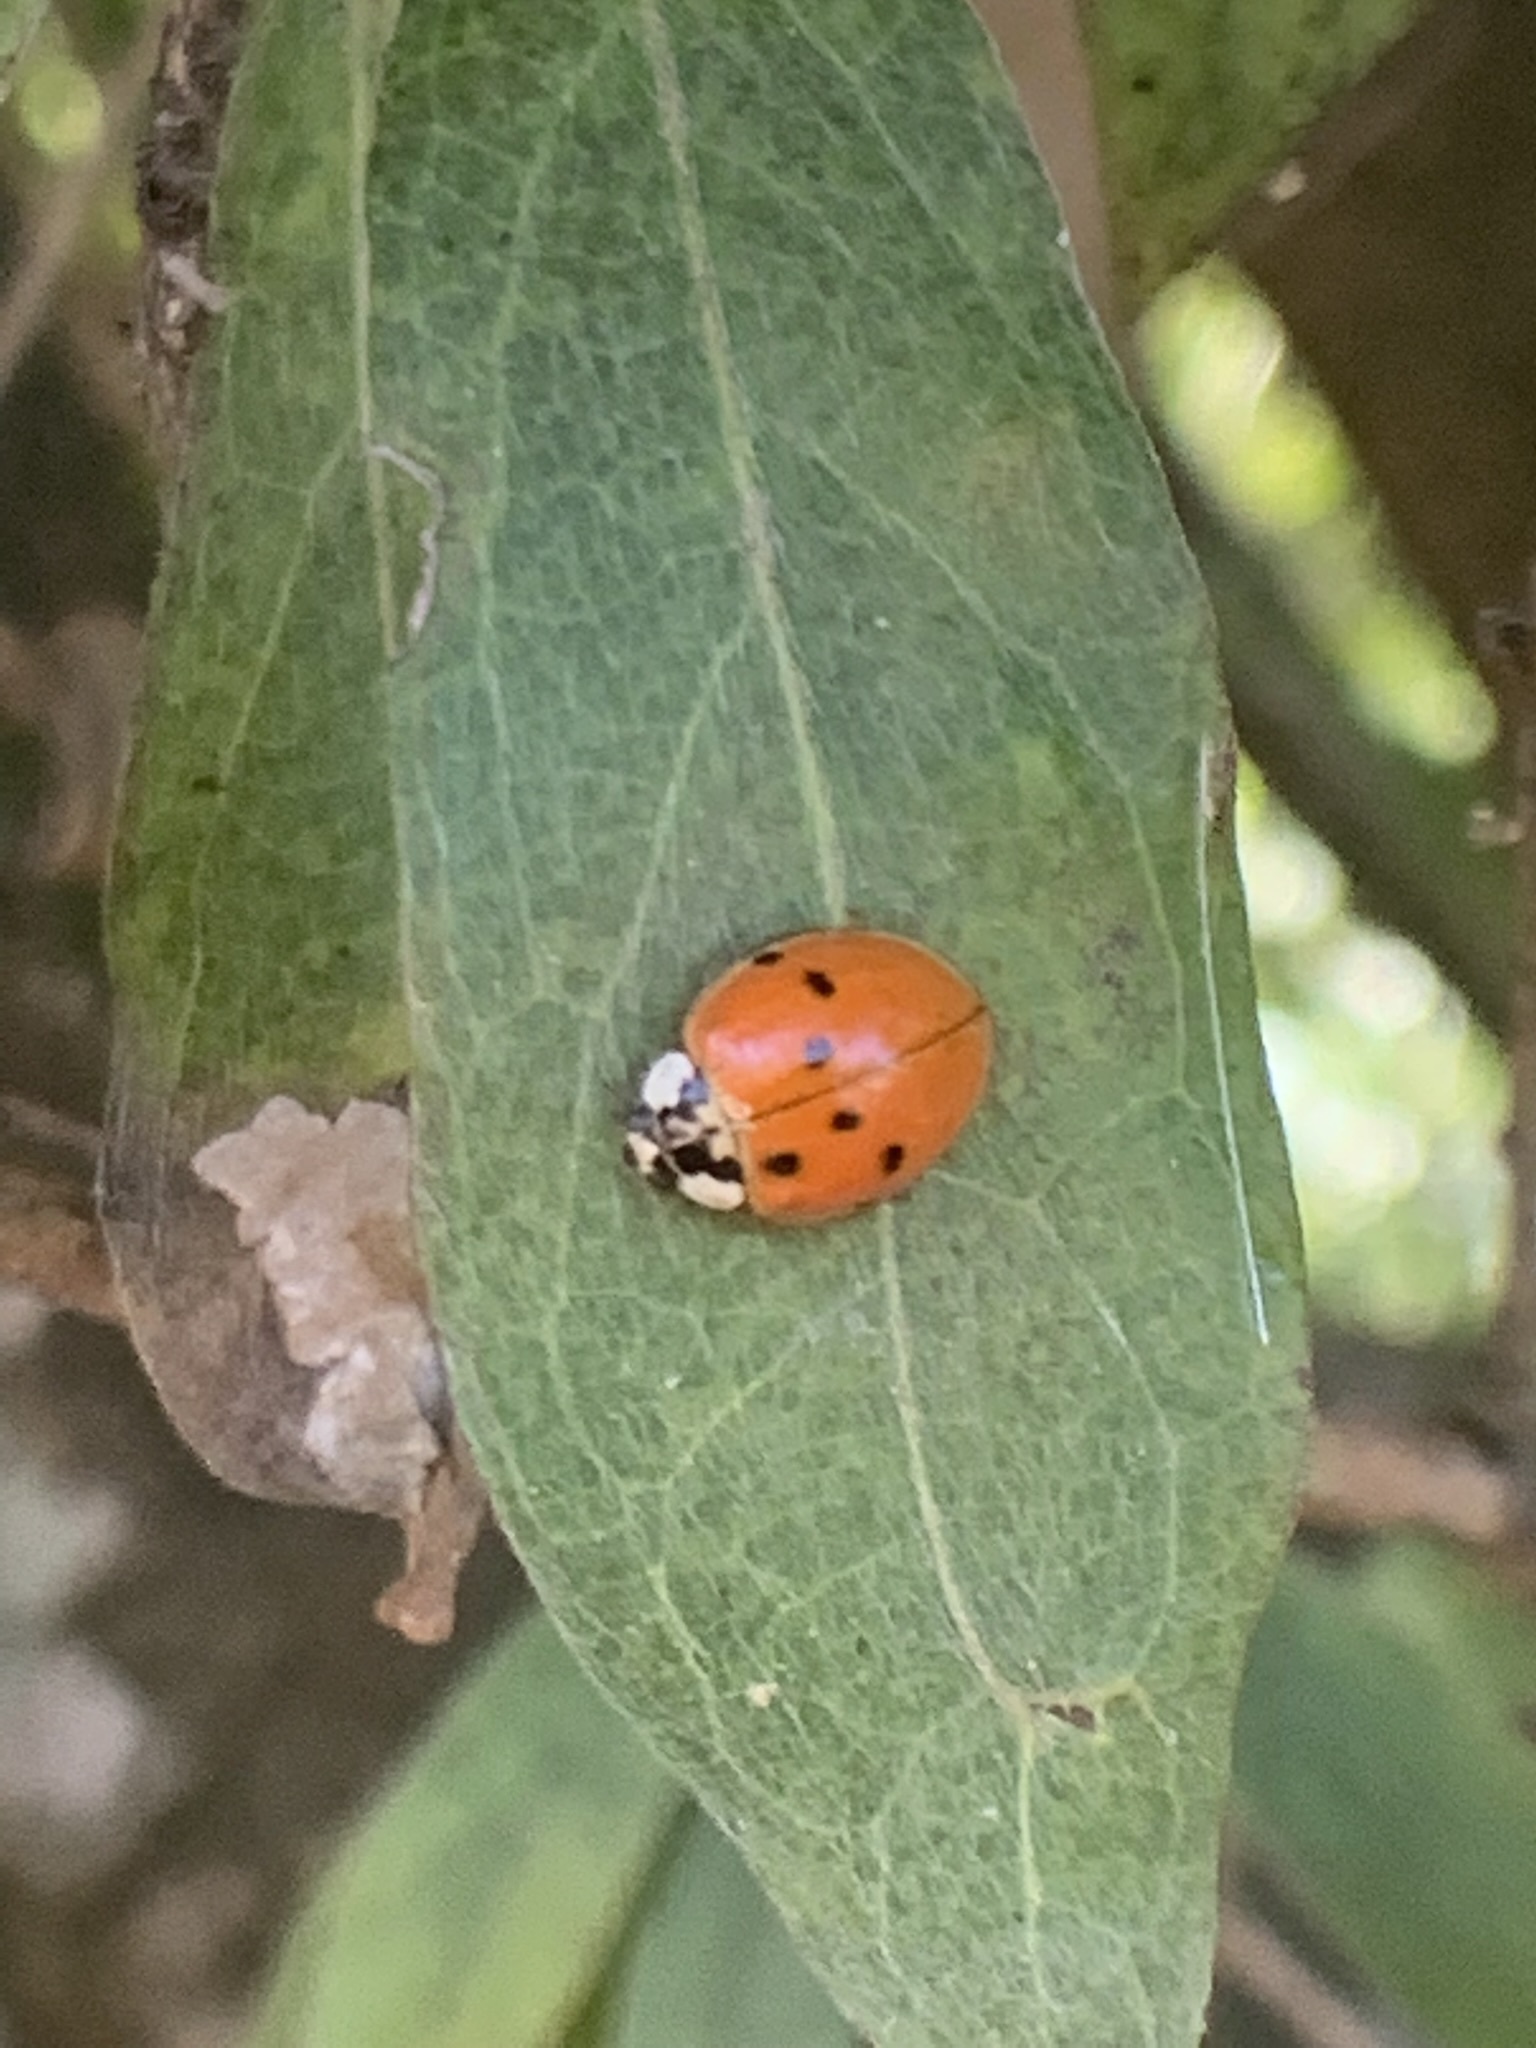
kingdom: Animalia
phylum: Arthropoda
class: Insecta
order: Coleoptera
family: Coccinellidae
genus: Harmonia
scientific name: Harmonia axyridis
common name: Harlequin ladybird
